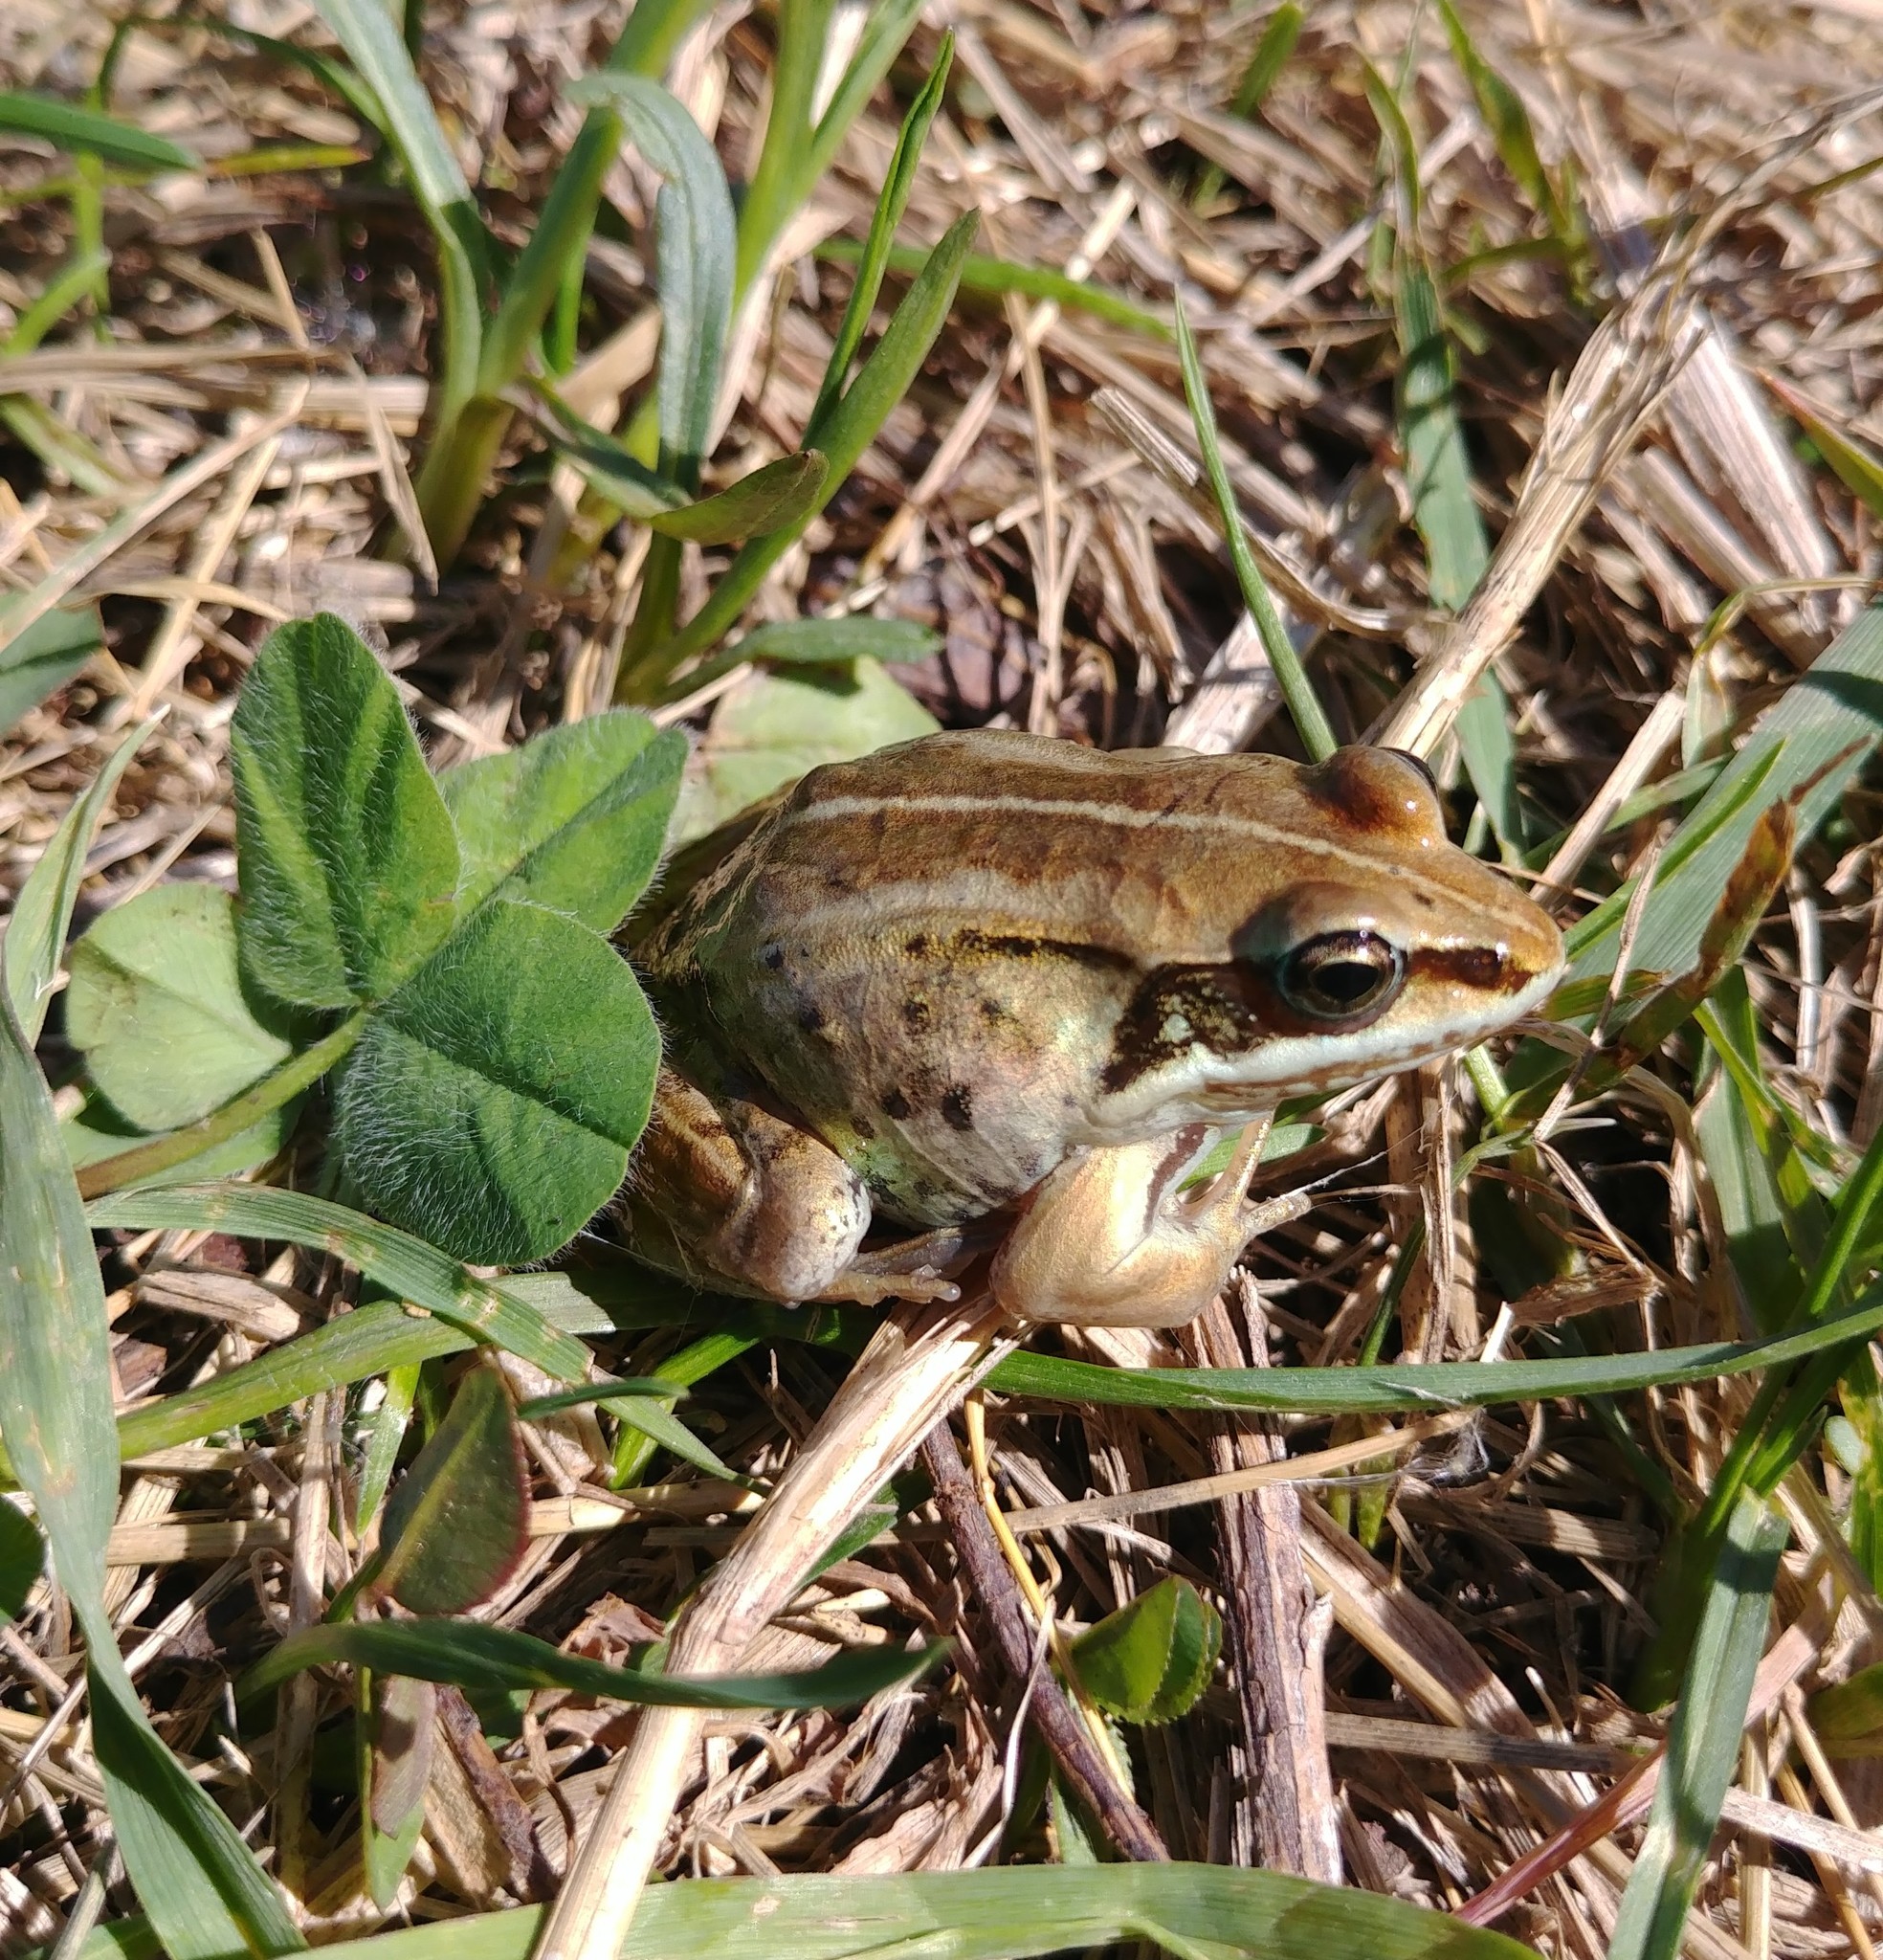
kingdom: Animalia
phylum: Chordata
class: Amphibia
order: Anura
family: Ranidae
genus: Lithobates
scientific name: Lithobates sylvaticus
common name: Wood frog
